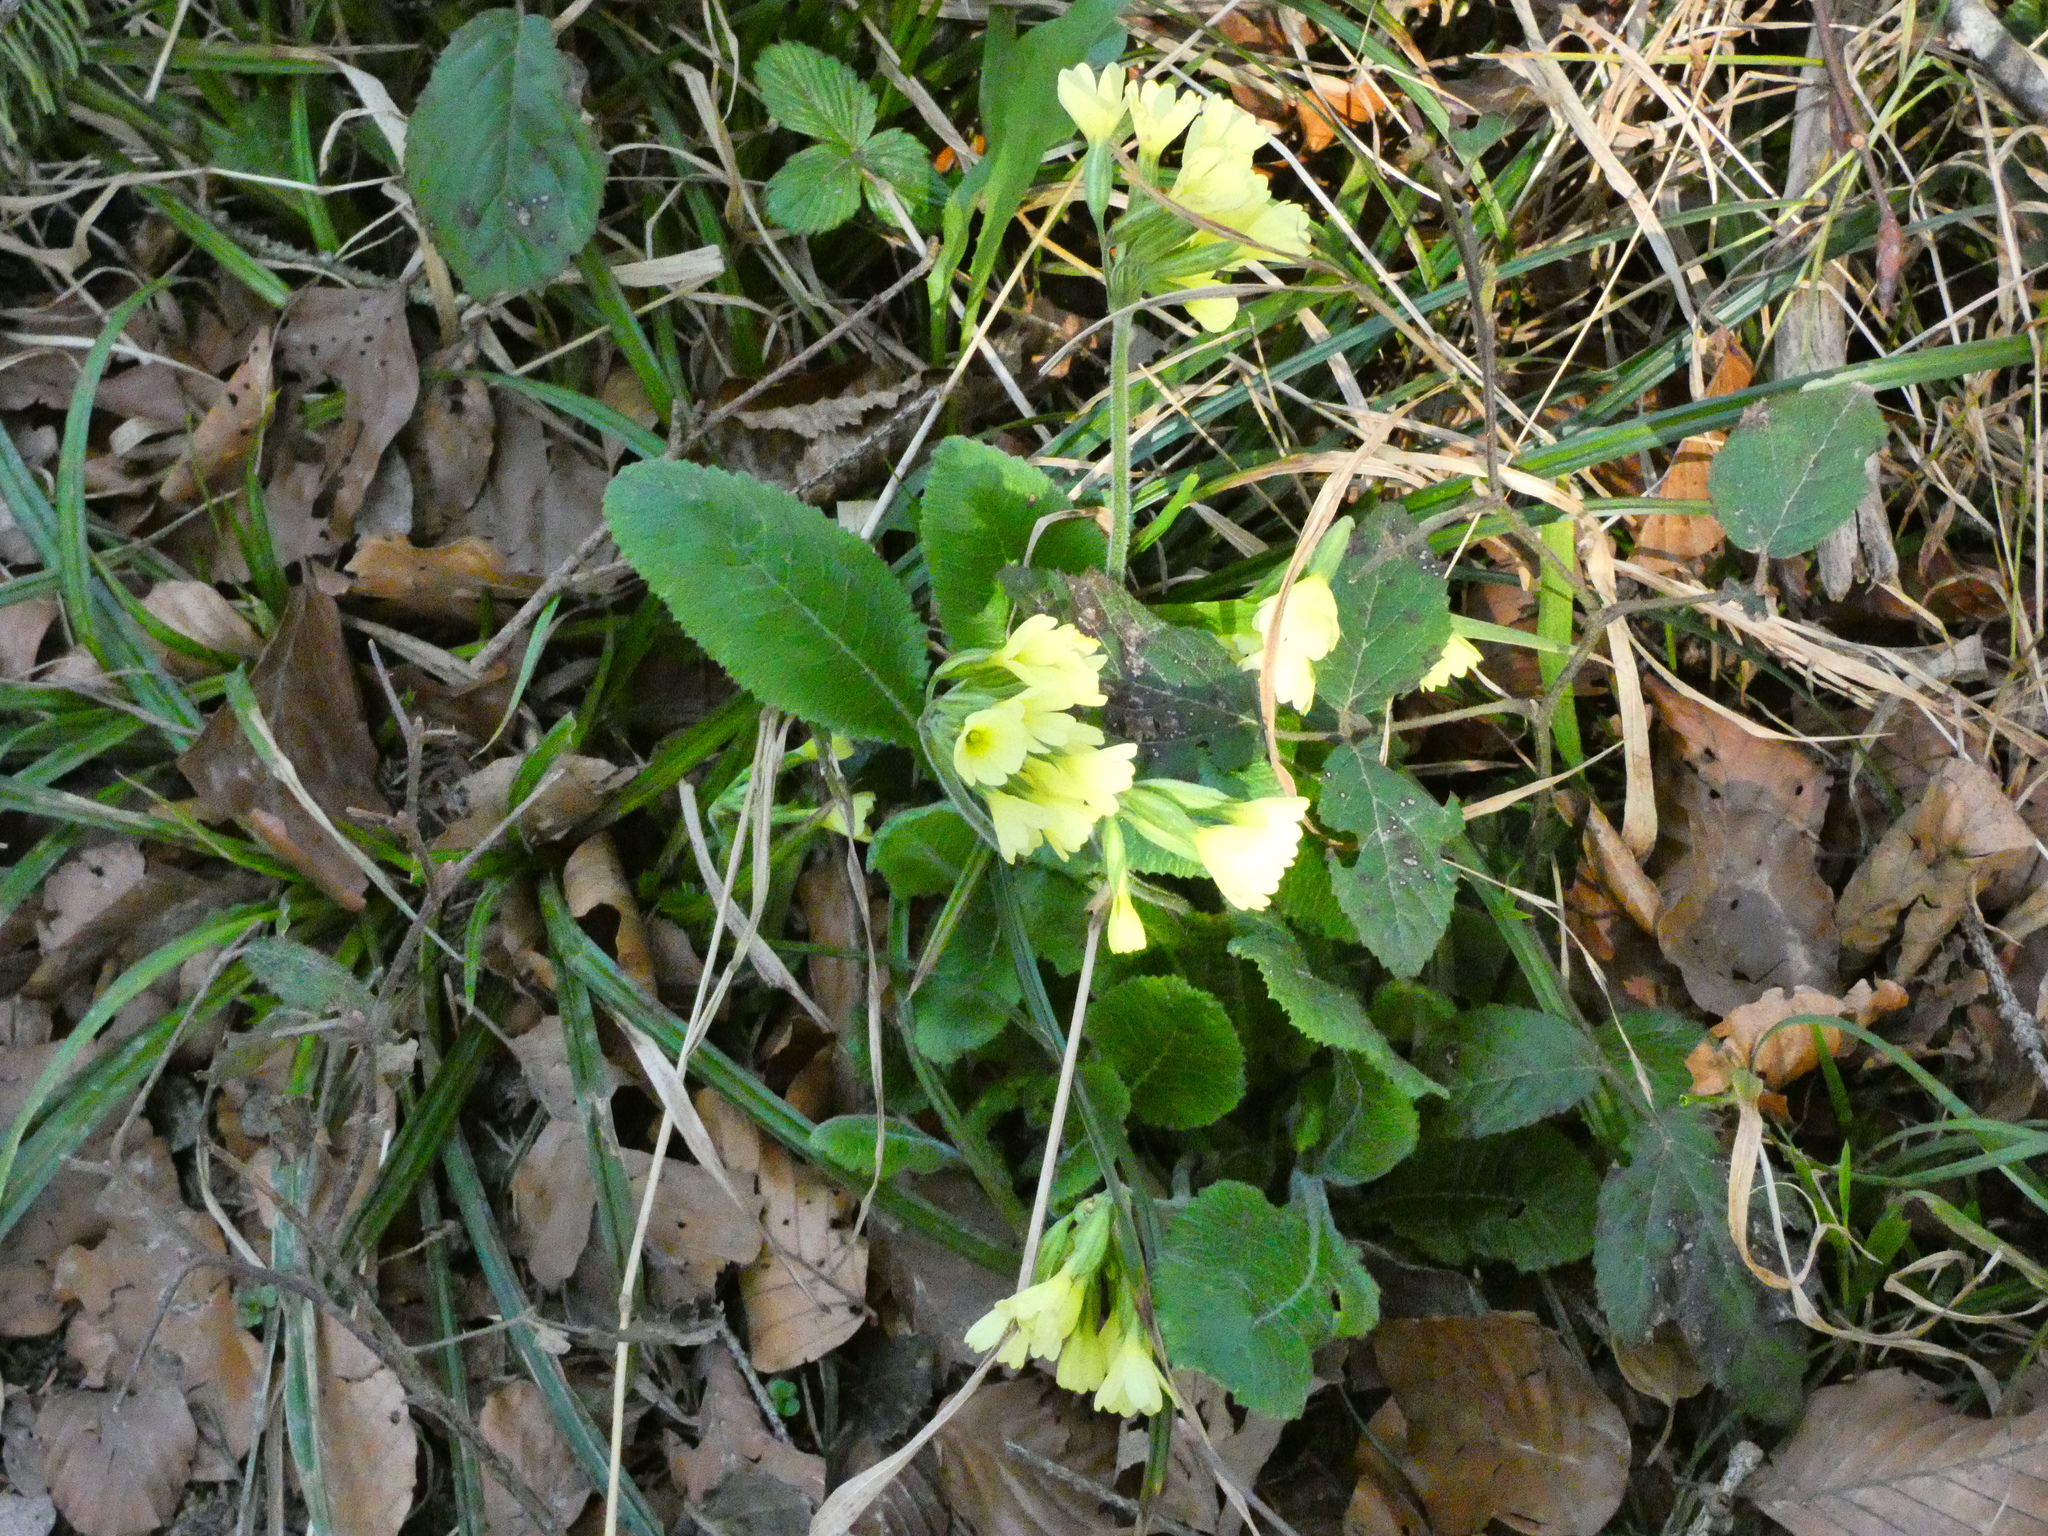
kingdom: Plantae
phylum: Tracheophyta
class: Magnoliopsida
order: Ericales
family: Primulaceae
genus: Primula
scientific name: Primula elatior
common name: Oxlip
